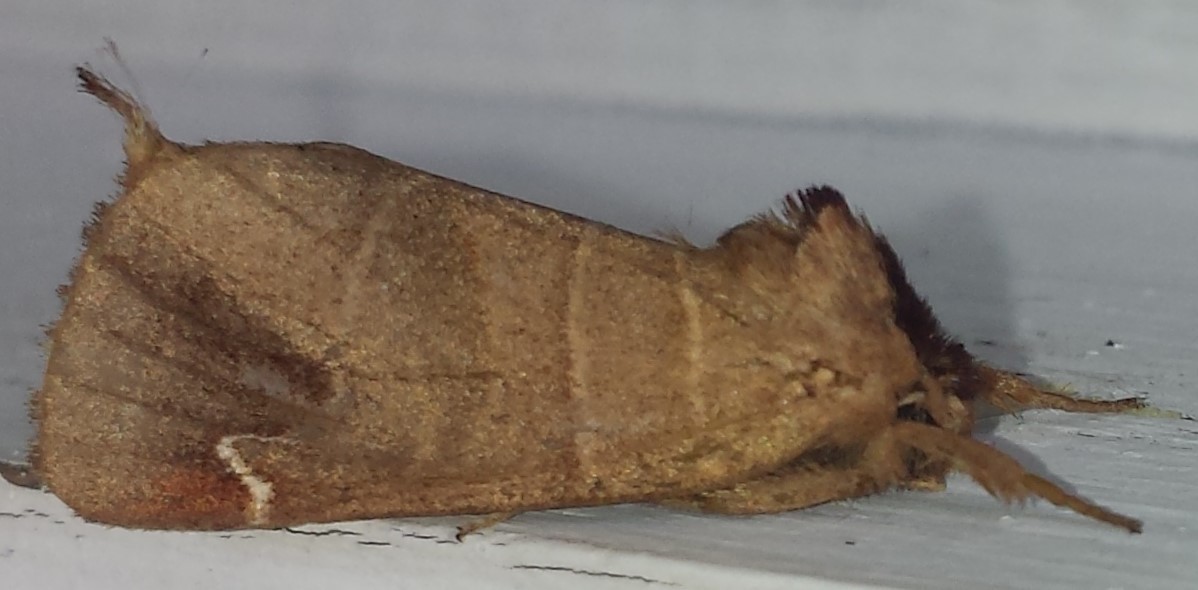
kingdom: Animalia
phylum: Arthropoda
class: Insecta
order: Lepidoptera
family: Notodontidae
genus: Clostera
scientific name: Clostera albosigma
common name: Sigmoid prominent
